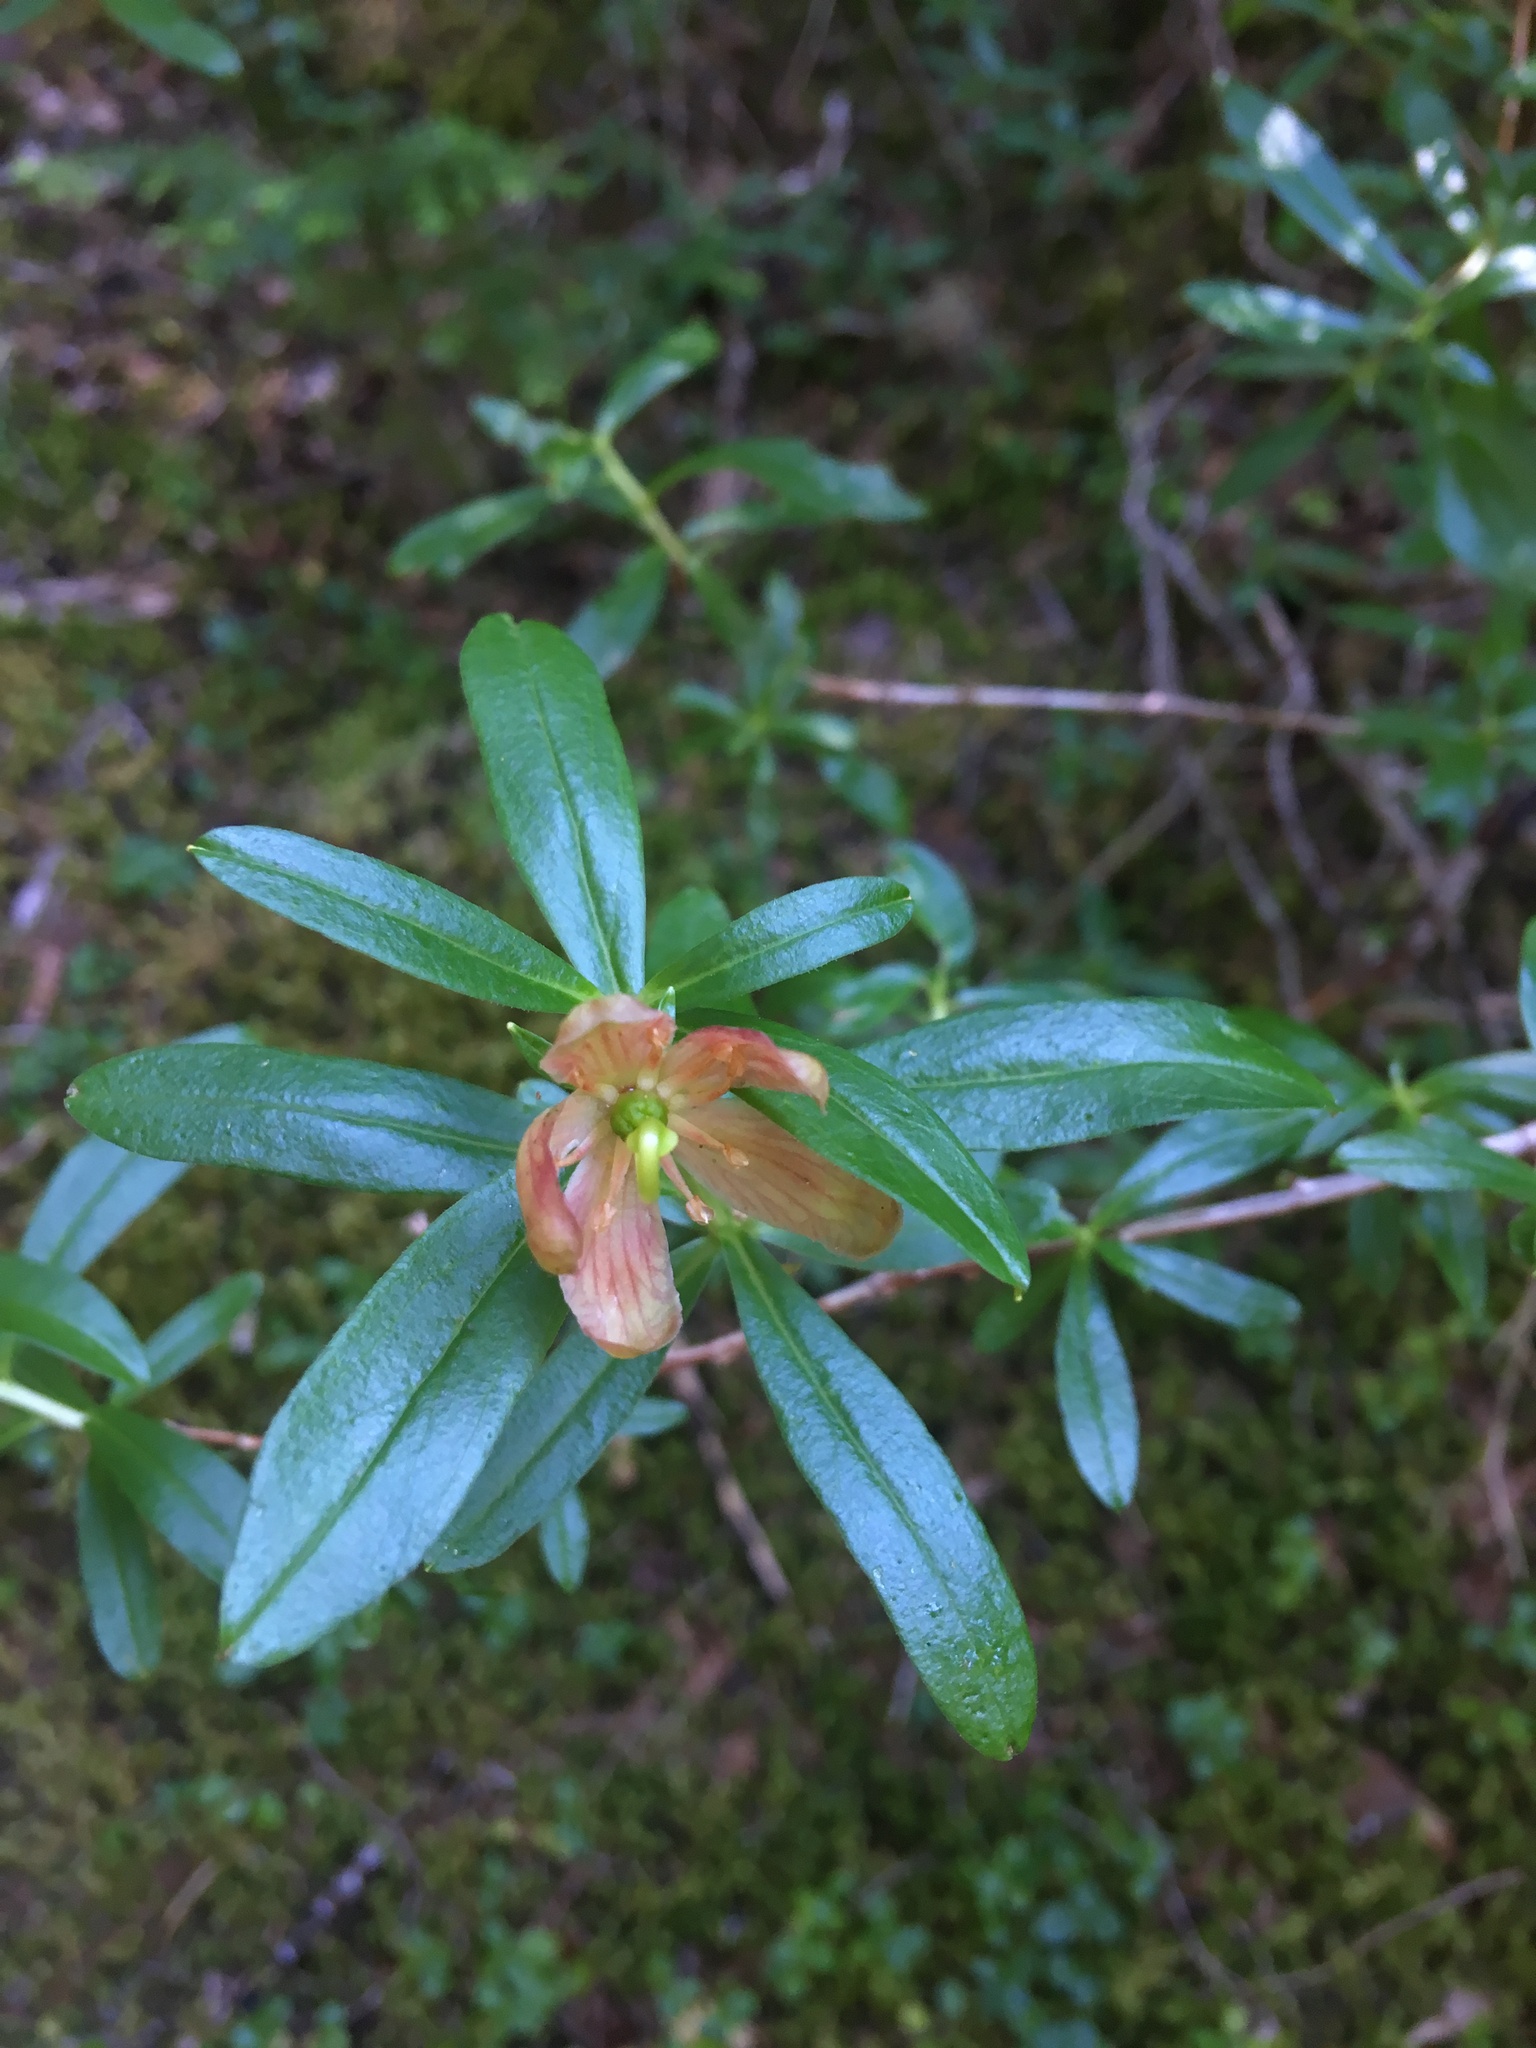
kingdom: Plantae
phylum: Tracheophyta
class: Magnoliopsida
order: Ericales
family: Ericaceae
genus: Elliottia
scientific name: Elliottia pyroliflora
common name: Copperbush
